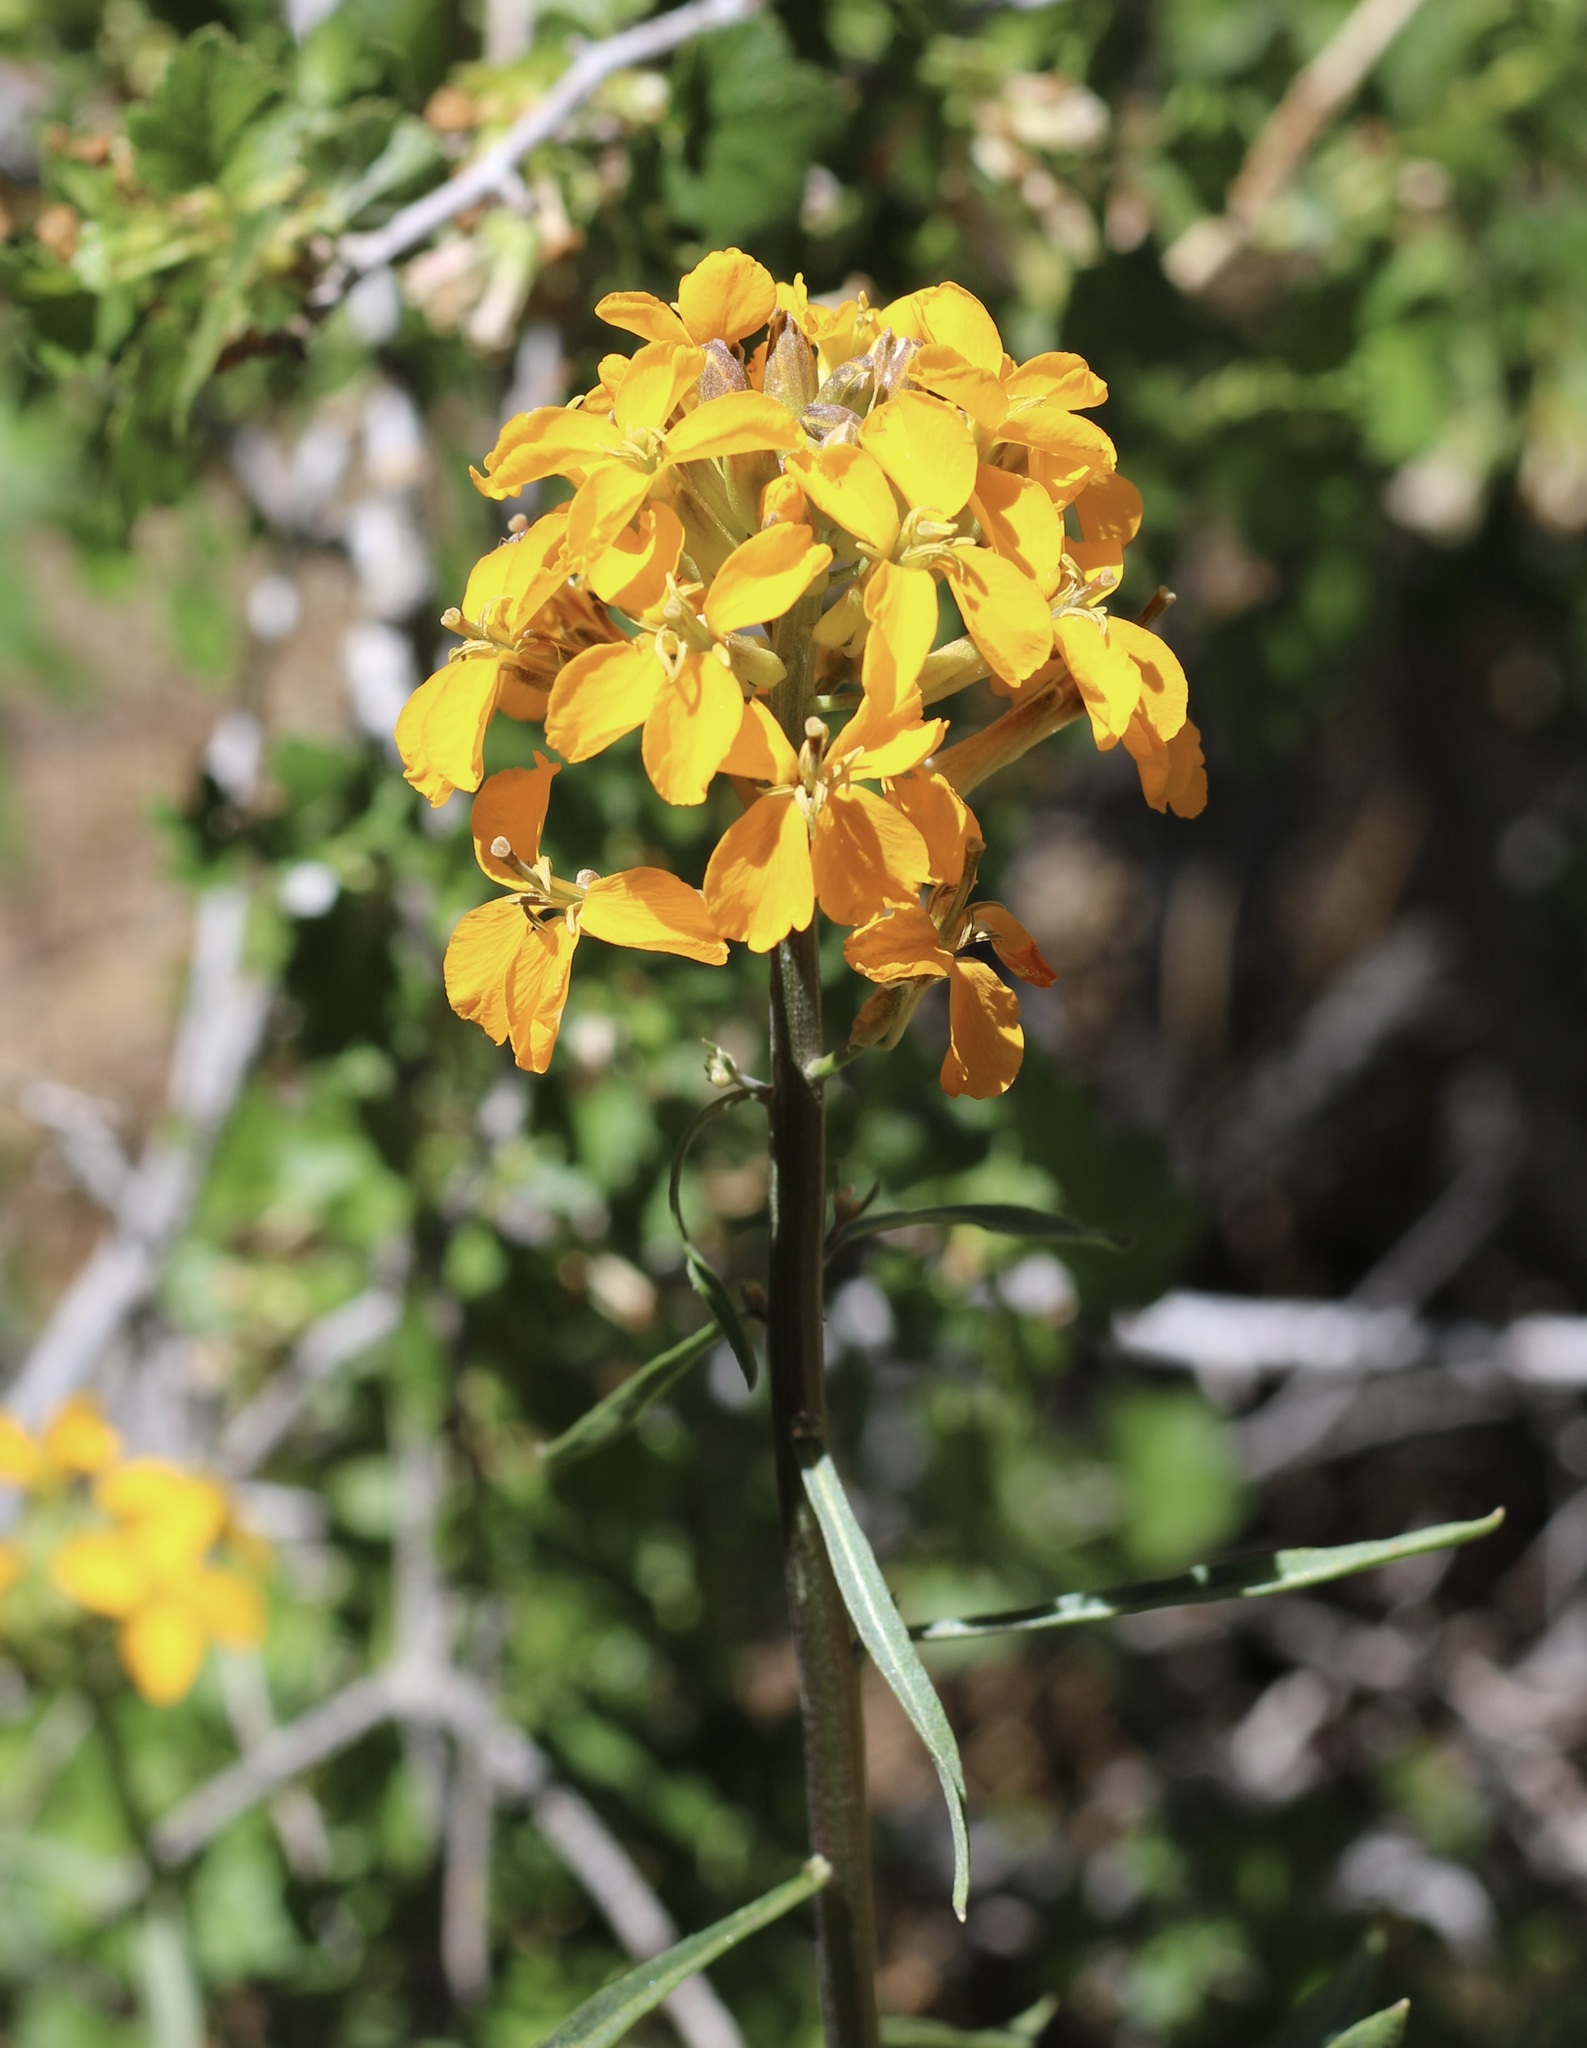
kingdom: Plantae
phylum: Tracheophyta
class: Magnoliopsida
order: Brassicales
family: Brassicaceae
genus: Erysimum
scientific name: Erysimum capitatum
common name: Western wallflower
